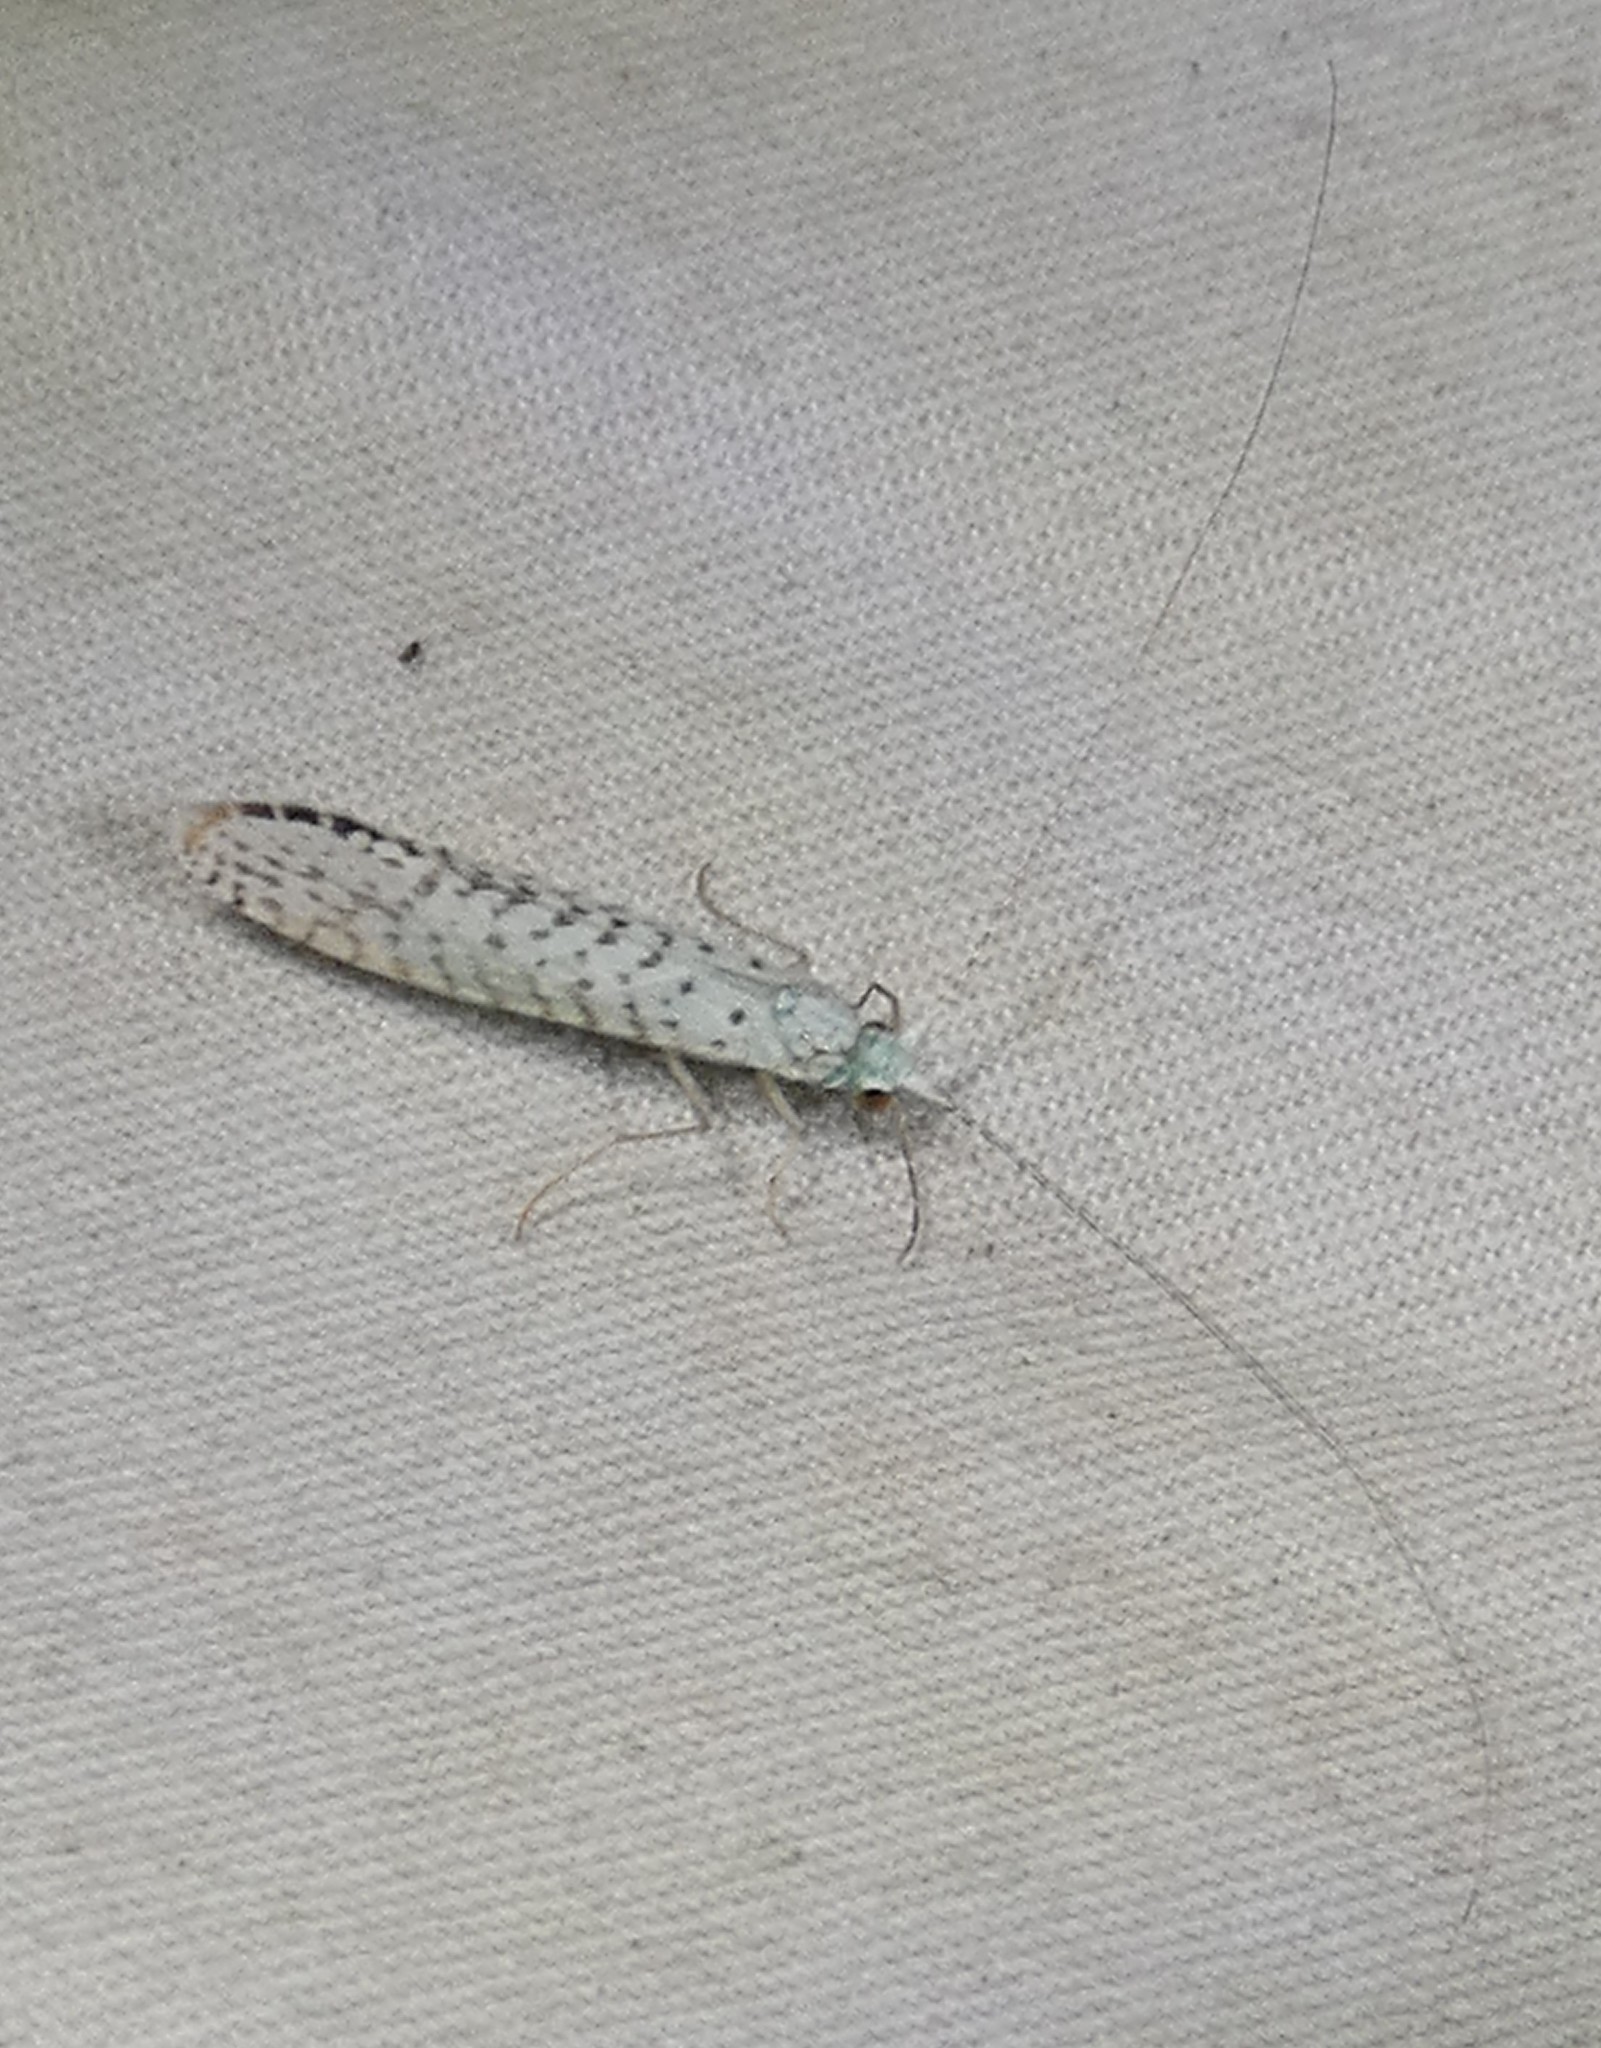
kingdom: Animalia
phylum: Arthropoda
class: Insecta
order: Trichoptera
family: Leptoceridae
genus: Nectopsyche
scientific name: Nectopsyche candida
